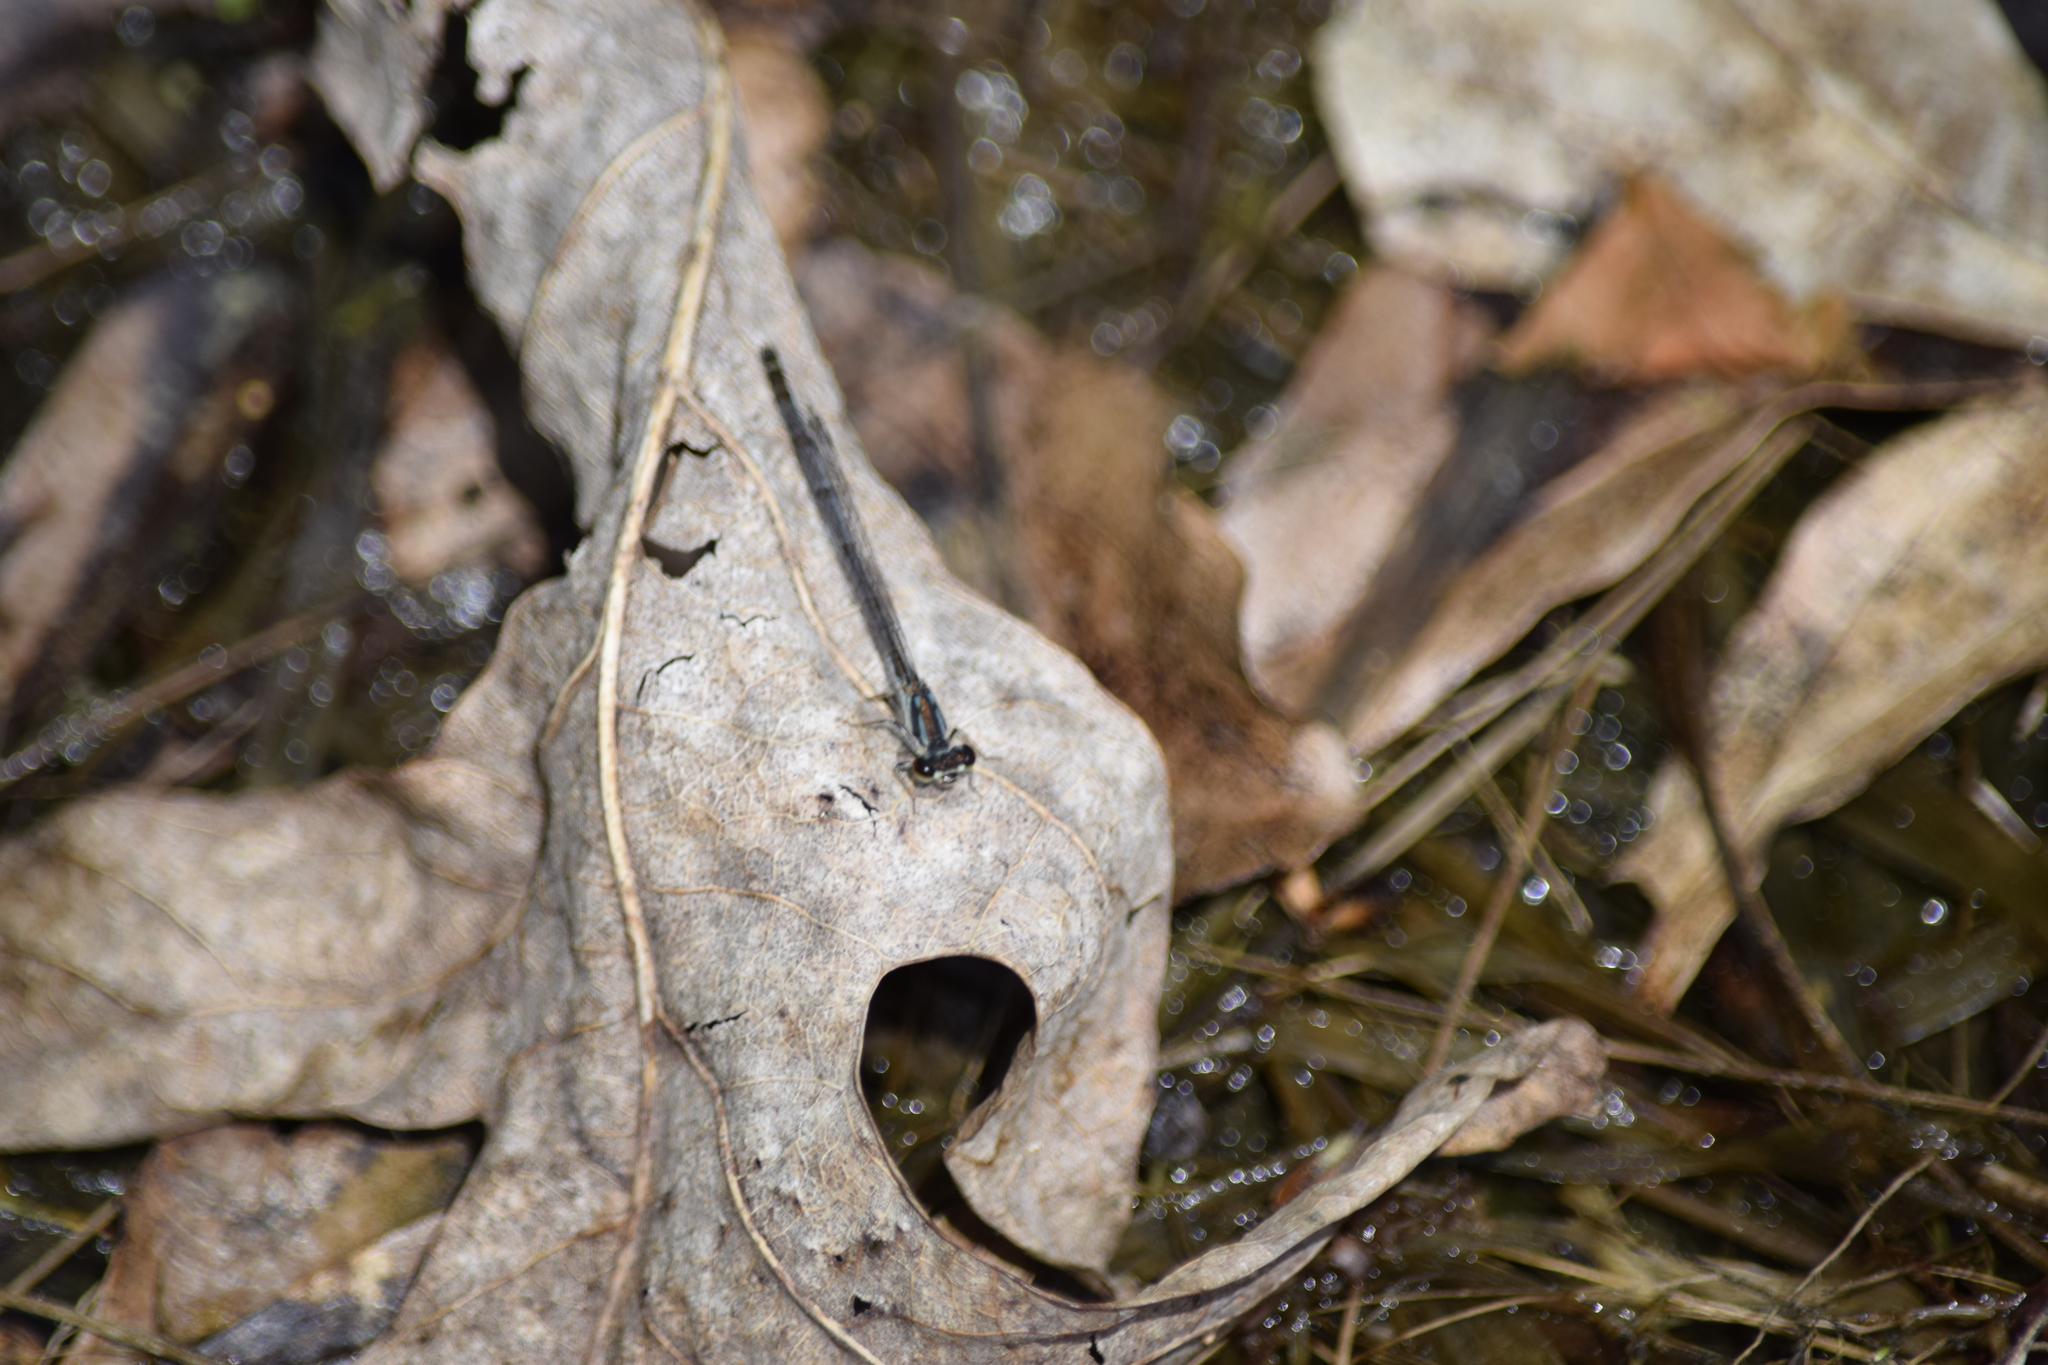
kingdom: Animalia
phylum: Arthropoda
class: Insecta
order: Odonata
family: Coenagrionidae
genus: Ischnura
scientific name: Ischnura posita
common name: Fragile forktail
